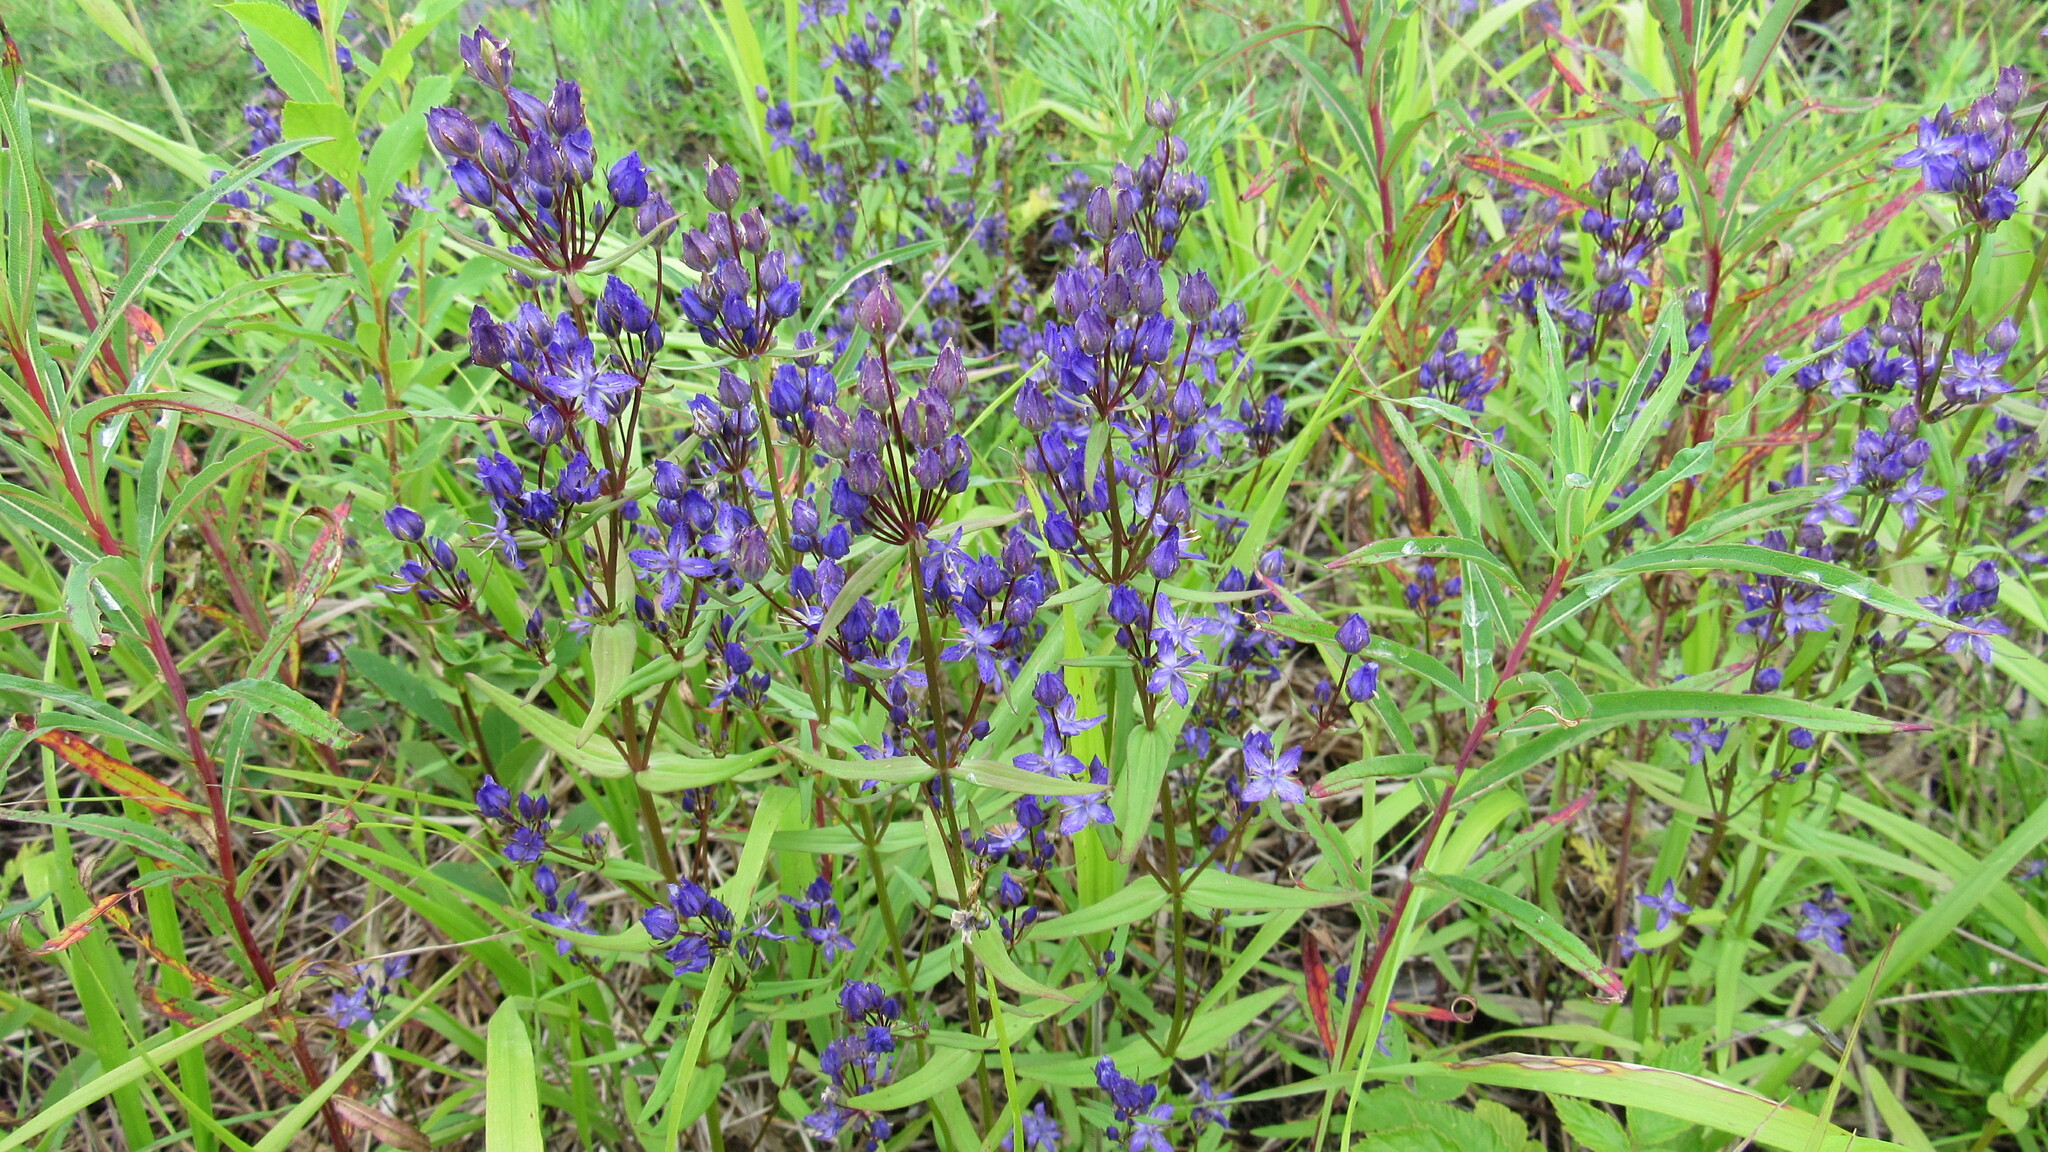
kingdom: Plantae
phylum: Tracheophyta
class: Magnoliopsida
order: Gentianales
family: Gentianaceae
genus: Swertia
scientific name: Swertia tetrapetala
